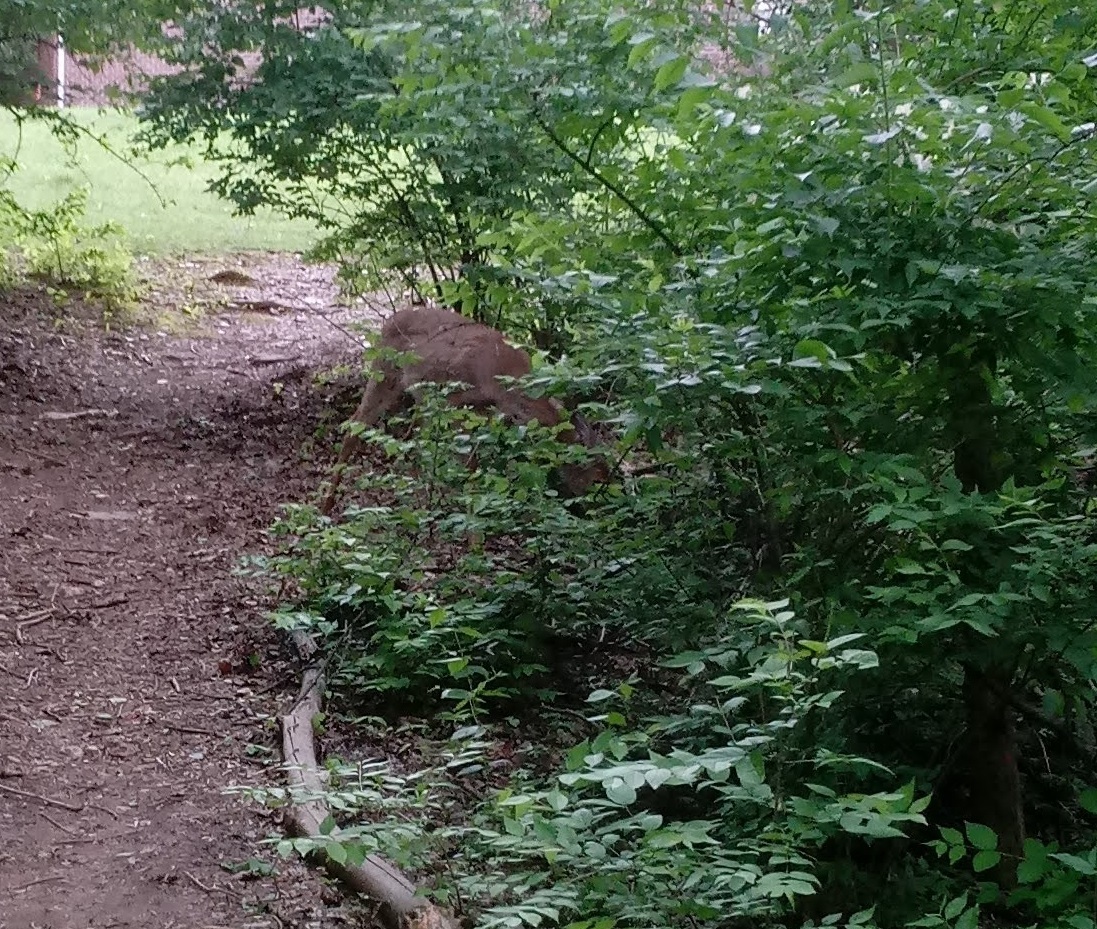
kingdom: Animalia
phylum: Chordata
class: Mammalia
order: Artiodactyla
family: Cervidae
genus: Odocoileus
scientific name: Odocoileus virginianus
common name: White-tailed deer
